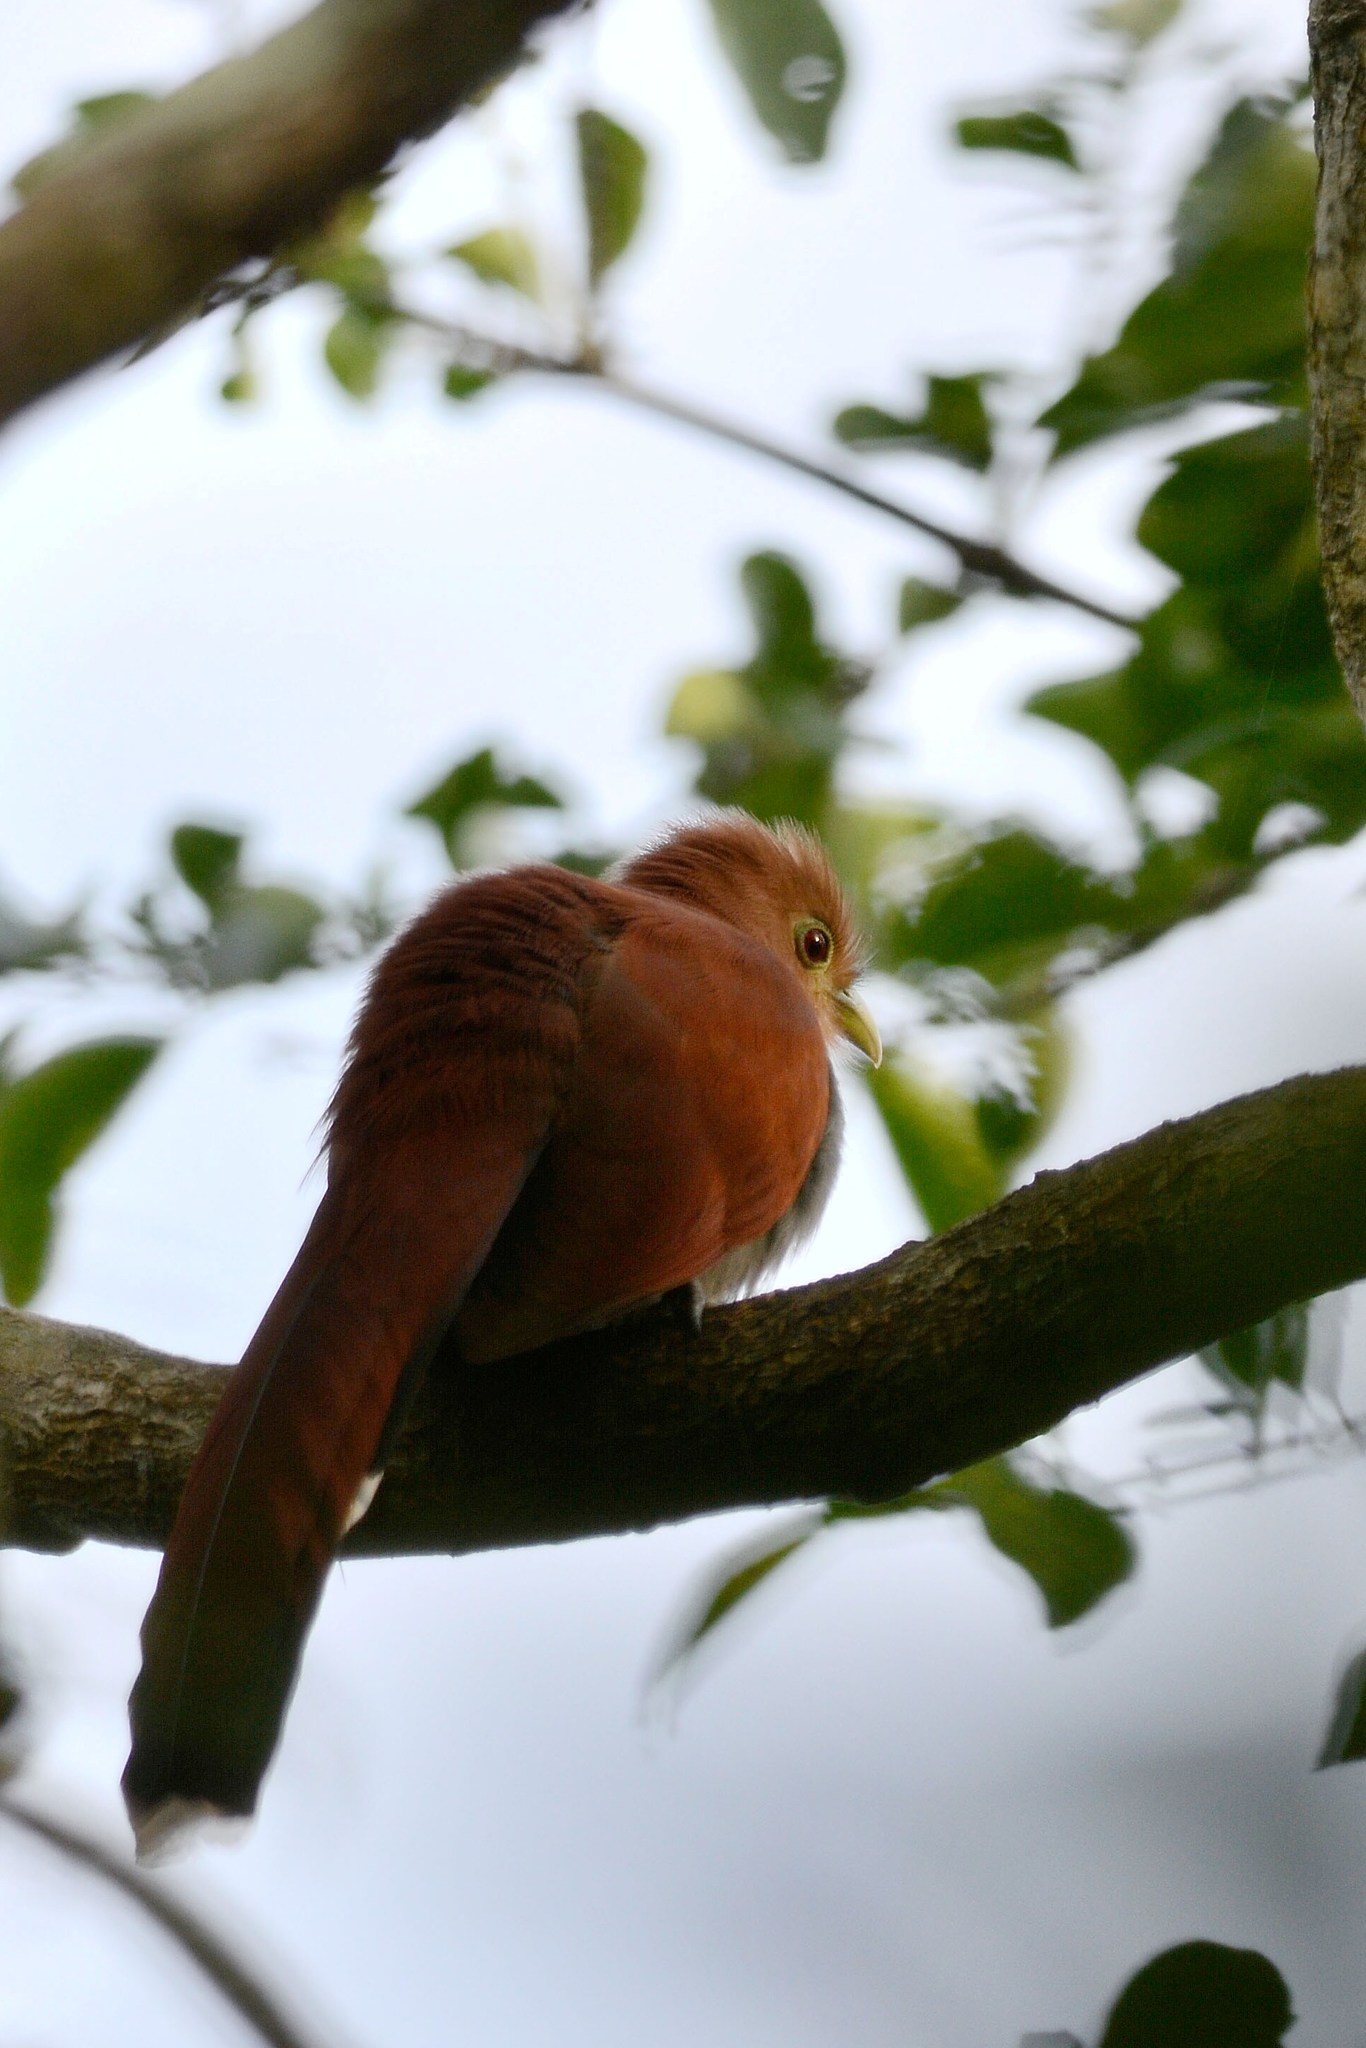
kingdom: Animalia
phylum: Chordata
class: Aves
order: Cuculiformes
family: Cuculidae
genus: Piaya
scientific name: Piaya cayana
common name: Squirrel cuckoo
